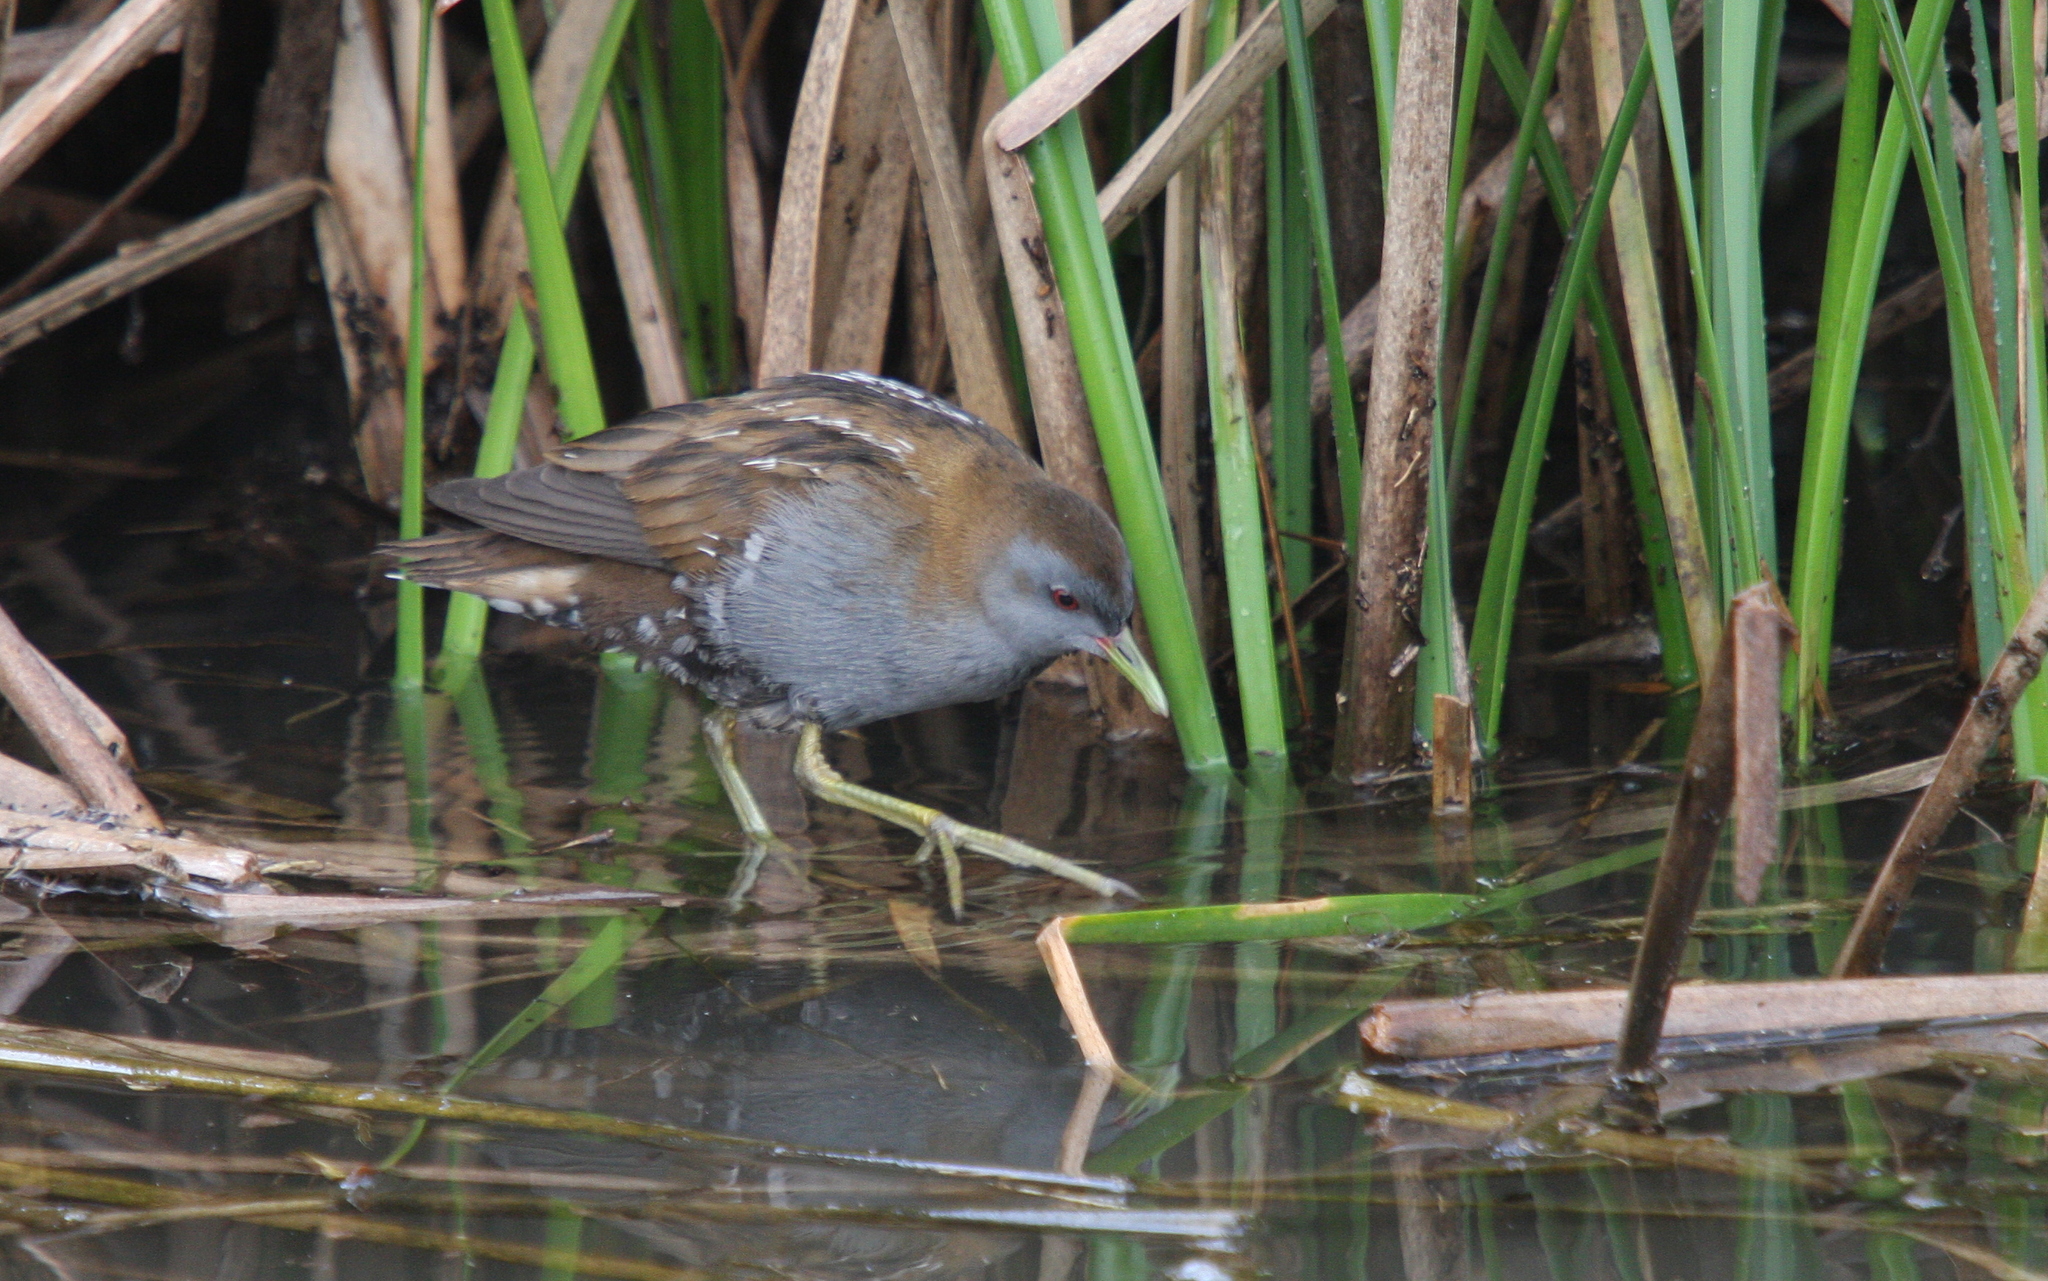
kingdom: Animalia
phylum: Chordata
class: Aves
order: Gruiformes
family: Rallidae
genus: Porzana
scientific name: Porzana parva
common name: Little crake
